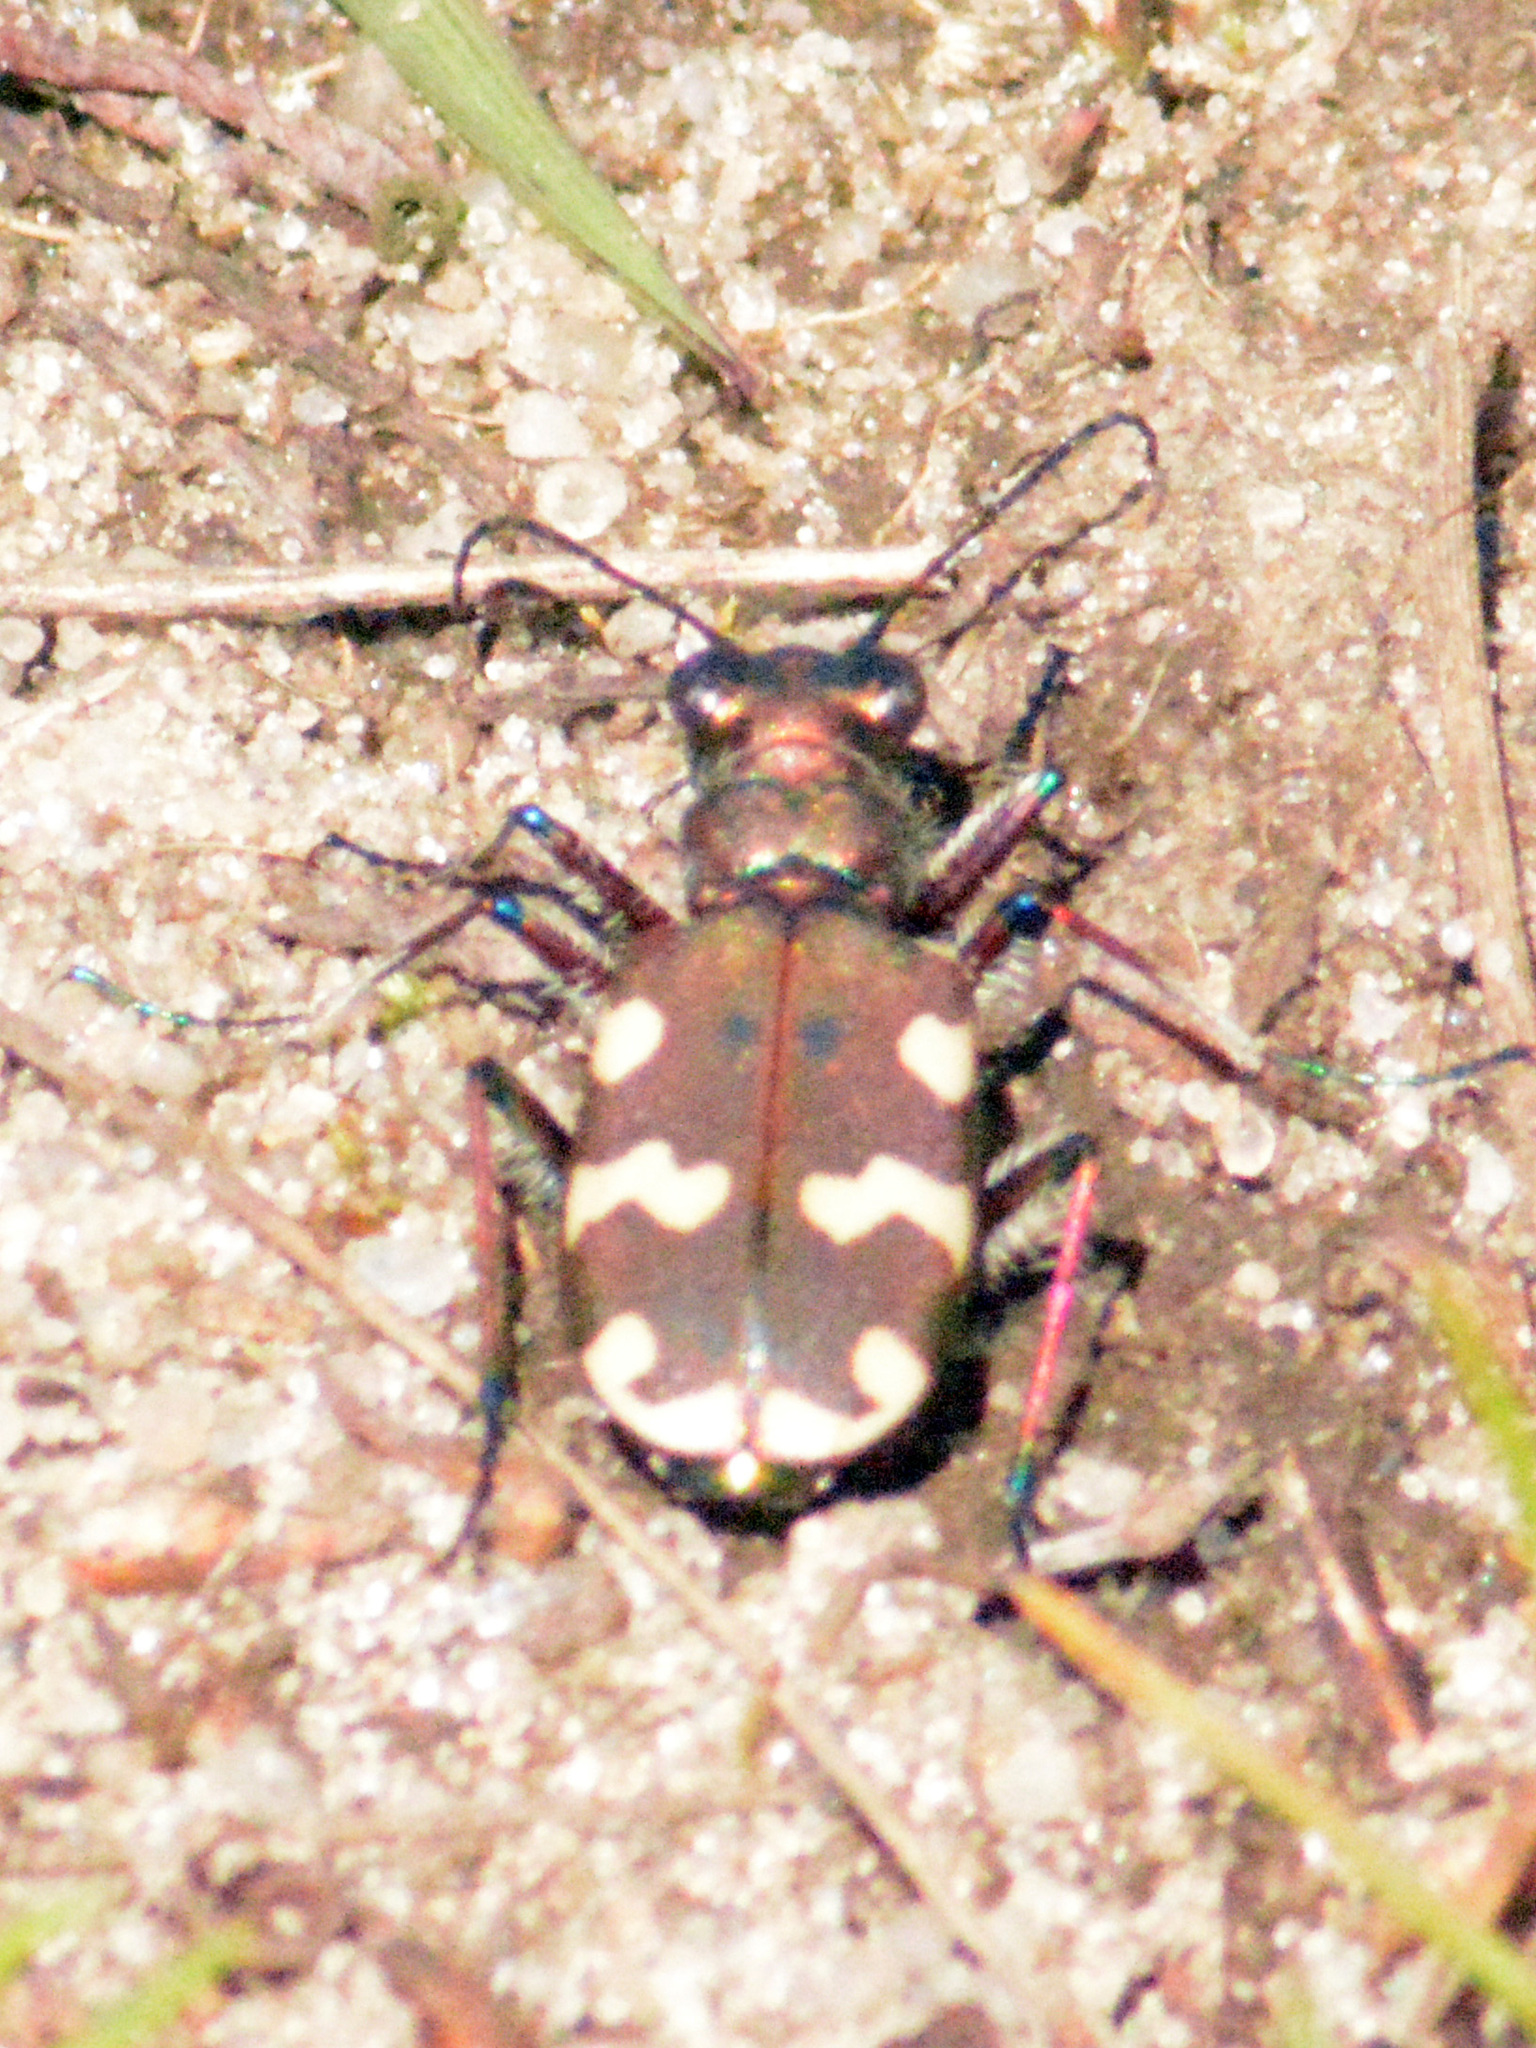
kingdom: Animalia
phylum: Arthropoda
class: Insecta
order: Coleoptera
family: Carabidae
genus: Cicindela
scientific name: Cicindela hybrida
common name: Northern dune tiger beetle
